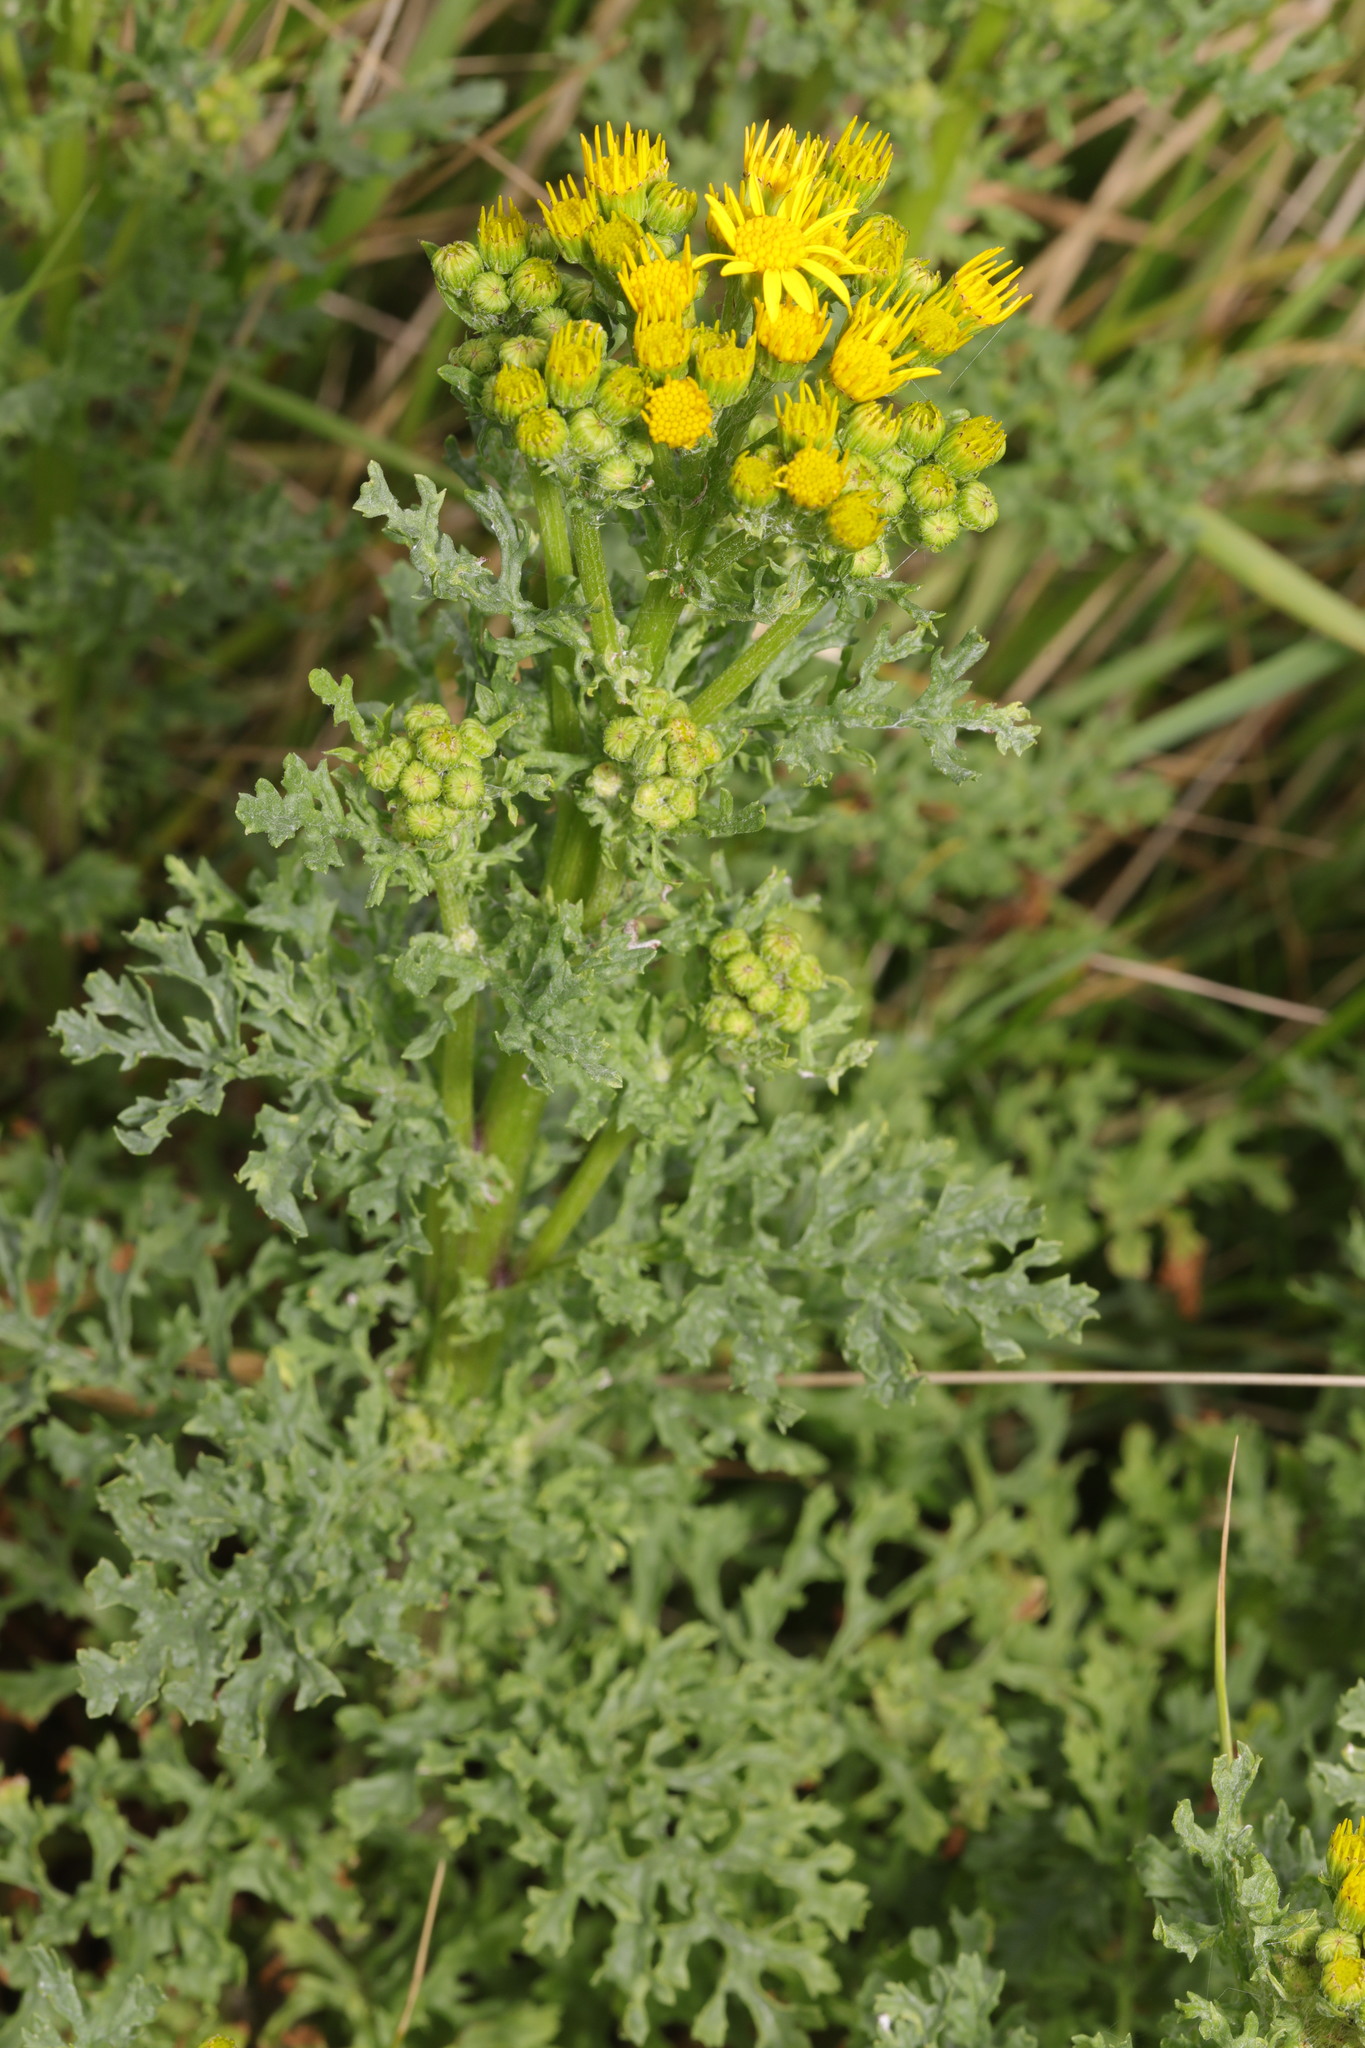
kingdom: Plantae
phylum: Tracheophyta
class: Magnoliopsida
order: Asterales
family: Asteraceae
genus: Jacobaea
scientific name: Jacobaea vulgaris
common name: Stinking willie
